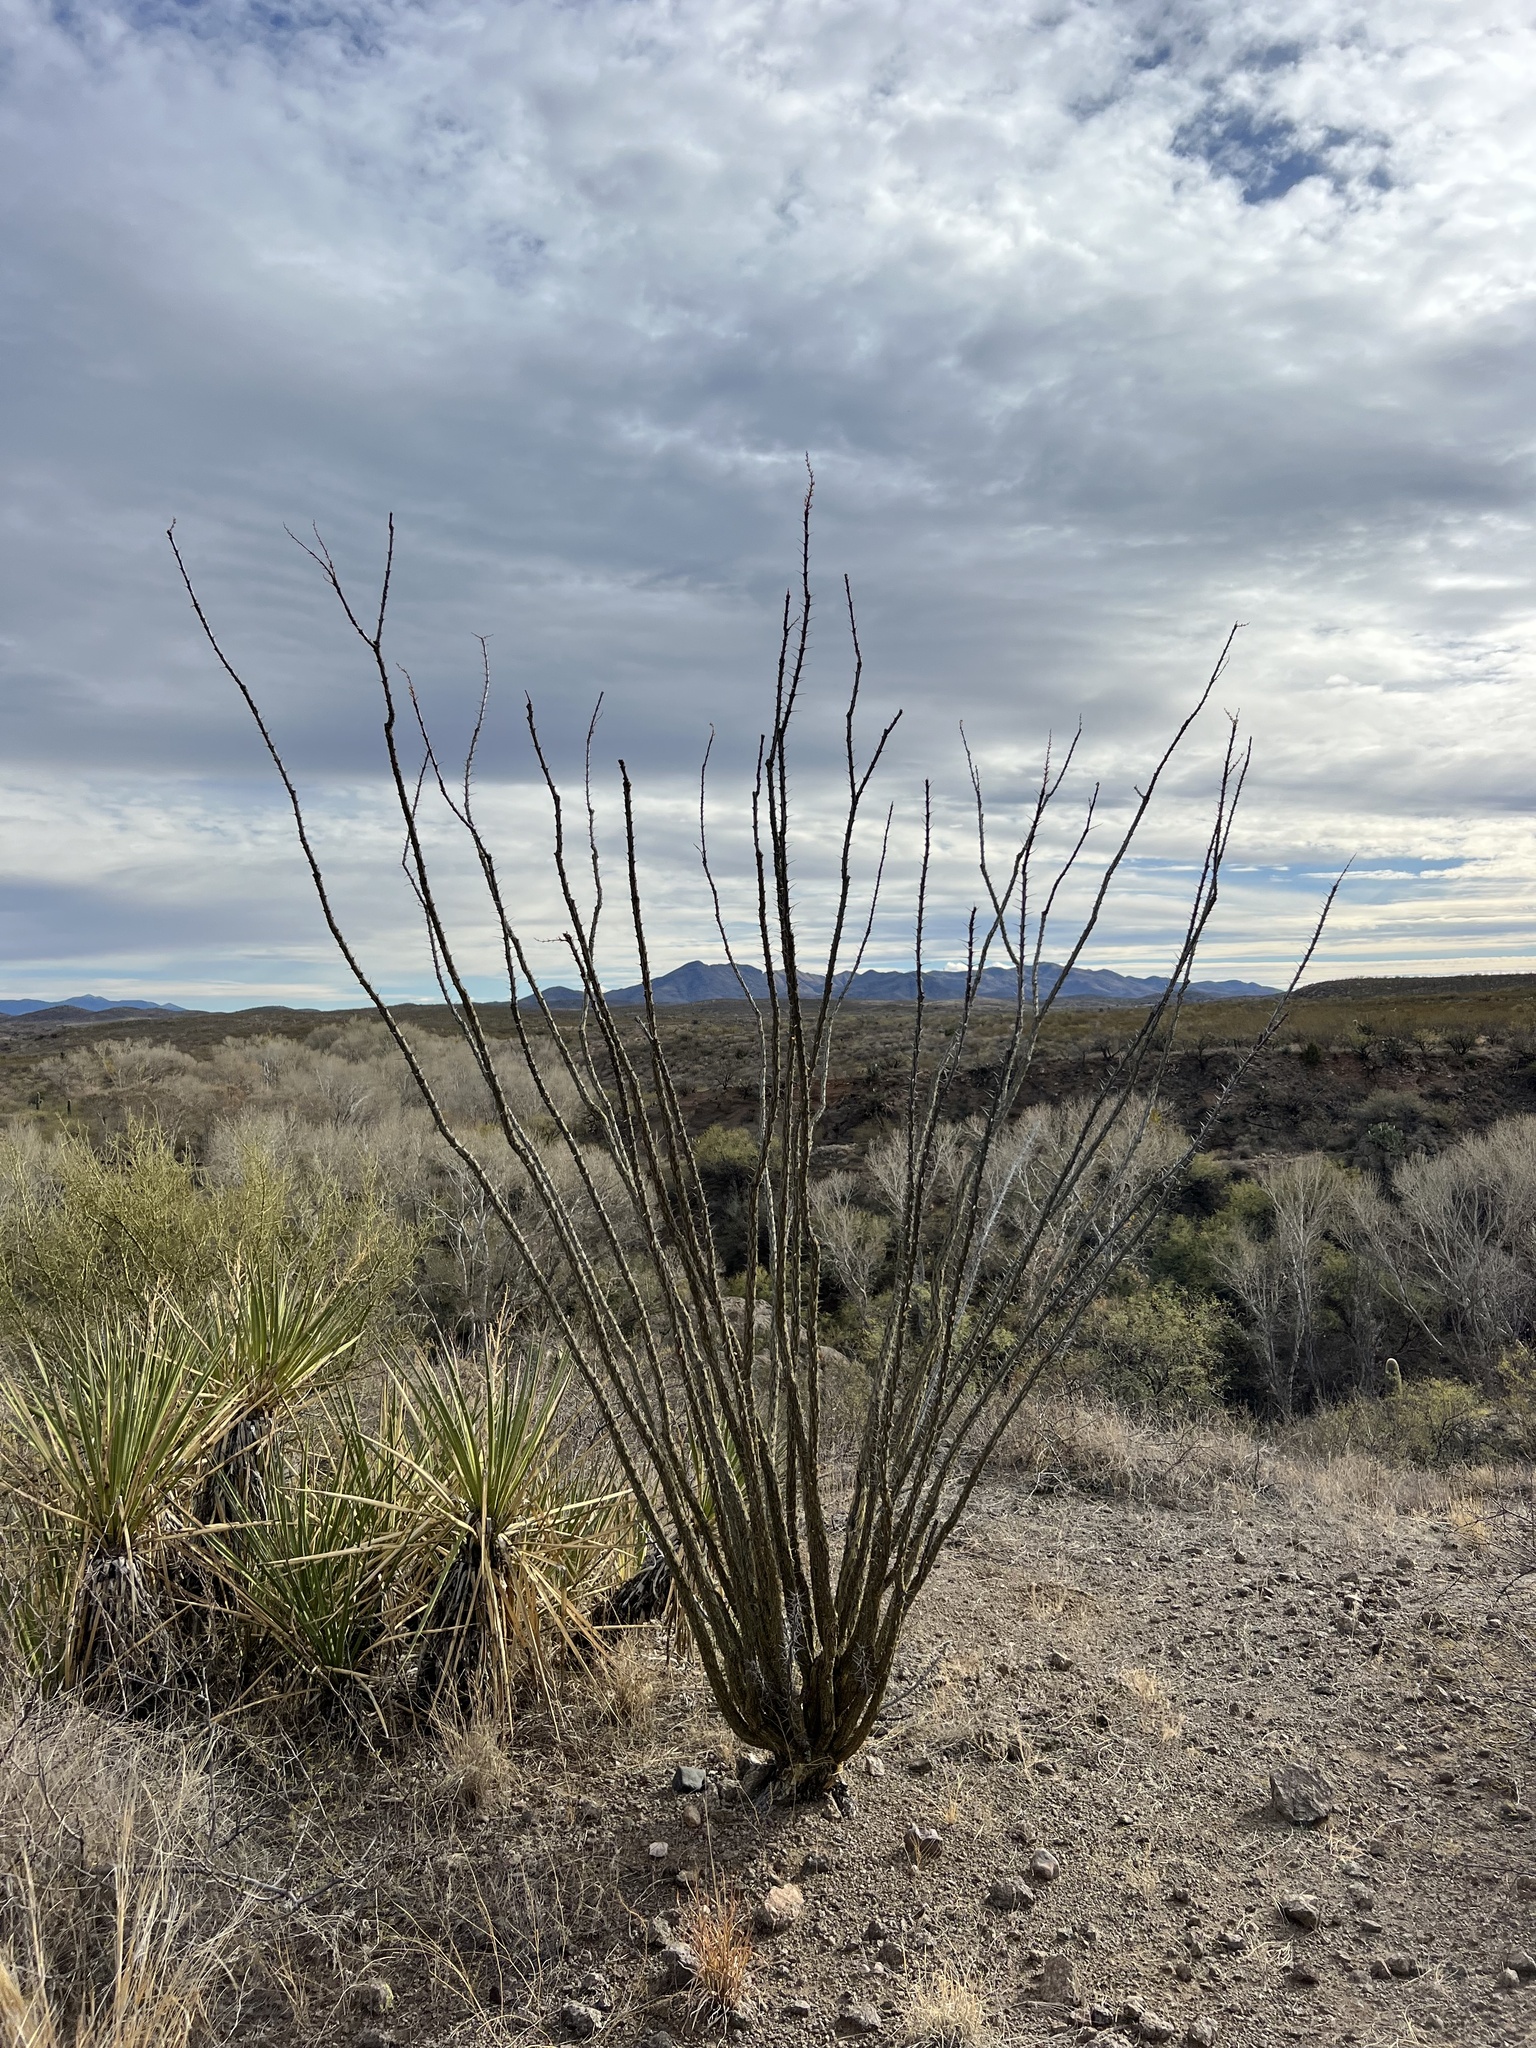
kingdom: Plantae
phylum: Tracheophyta
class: Magnoliopsida
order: Ericales
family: Fouquieriaceae
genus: Fouquieria
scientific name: Fouquieria splendens
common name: Vine-cactus
